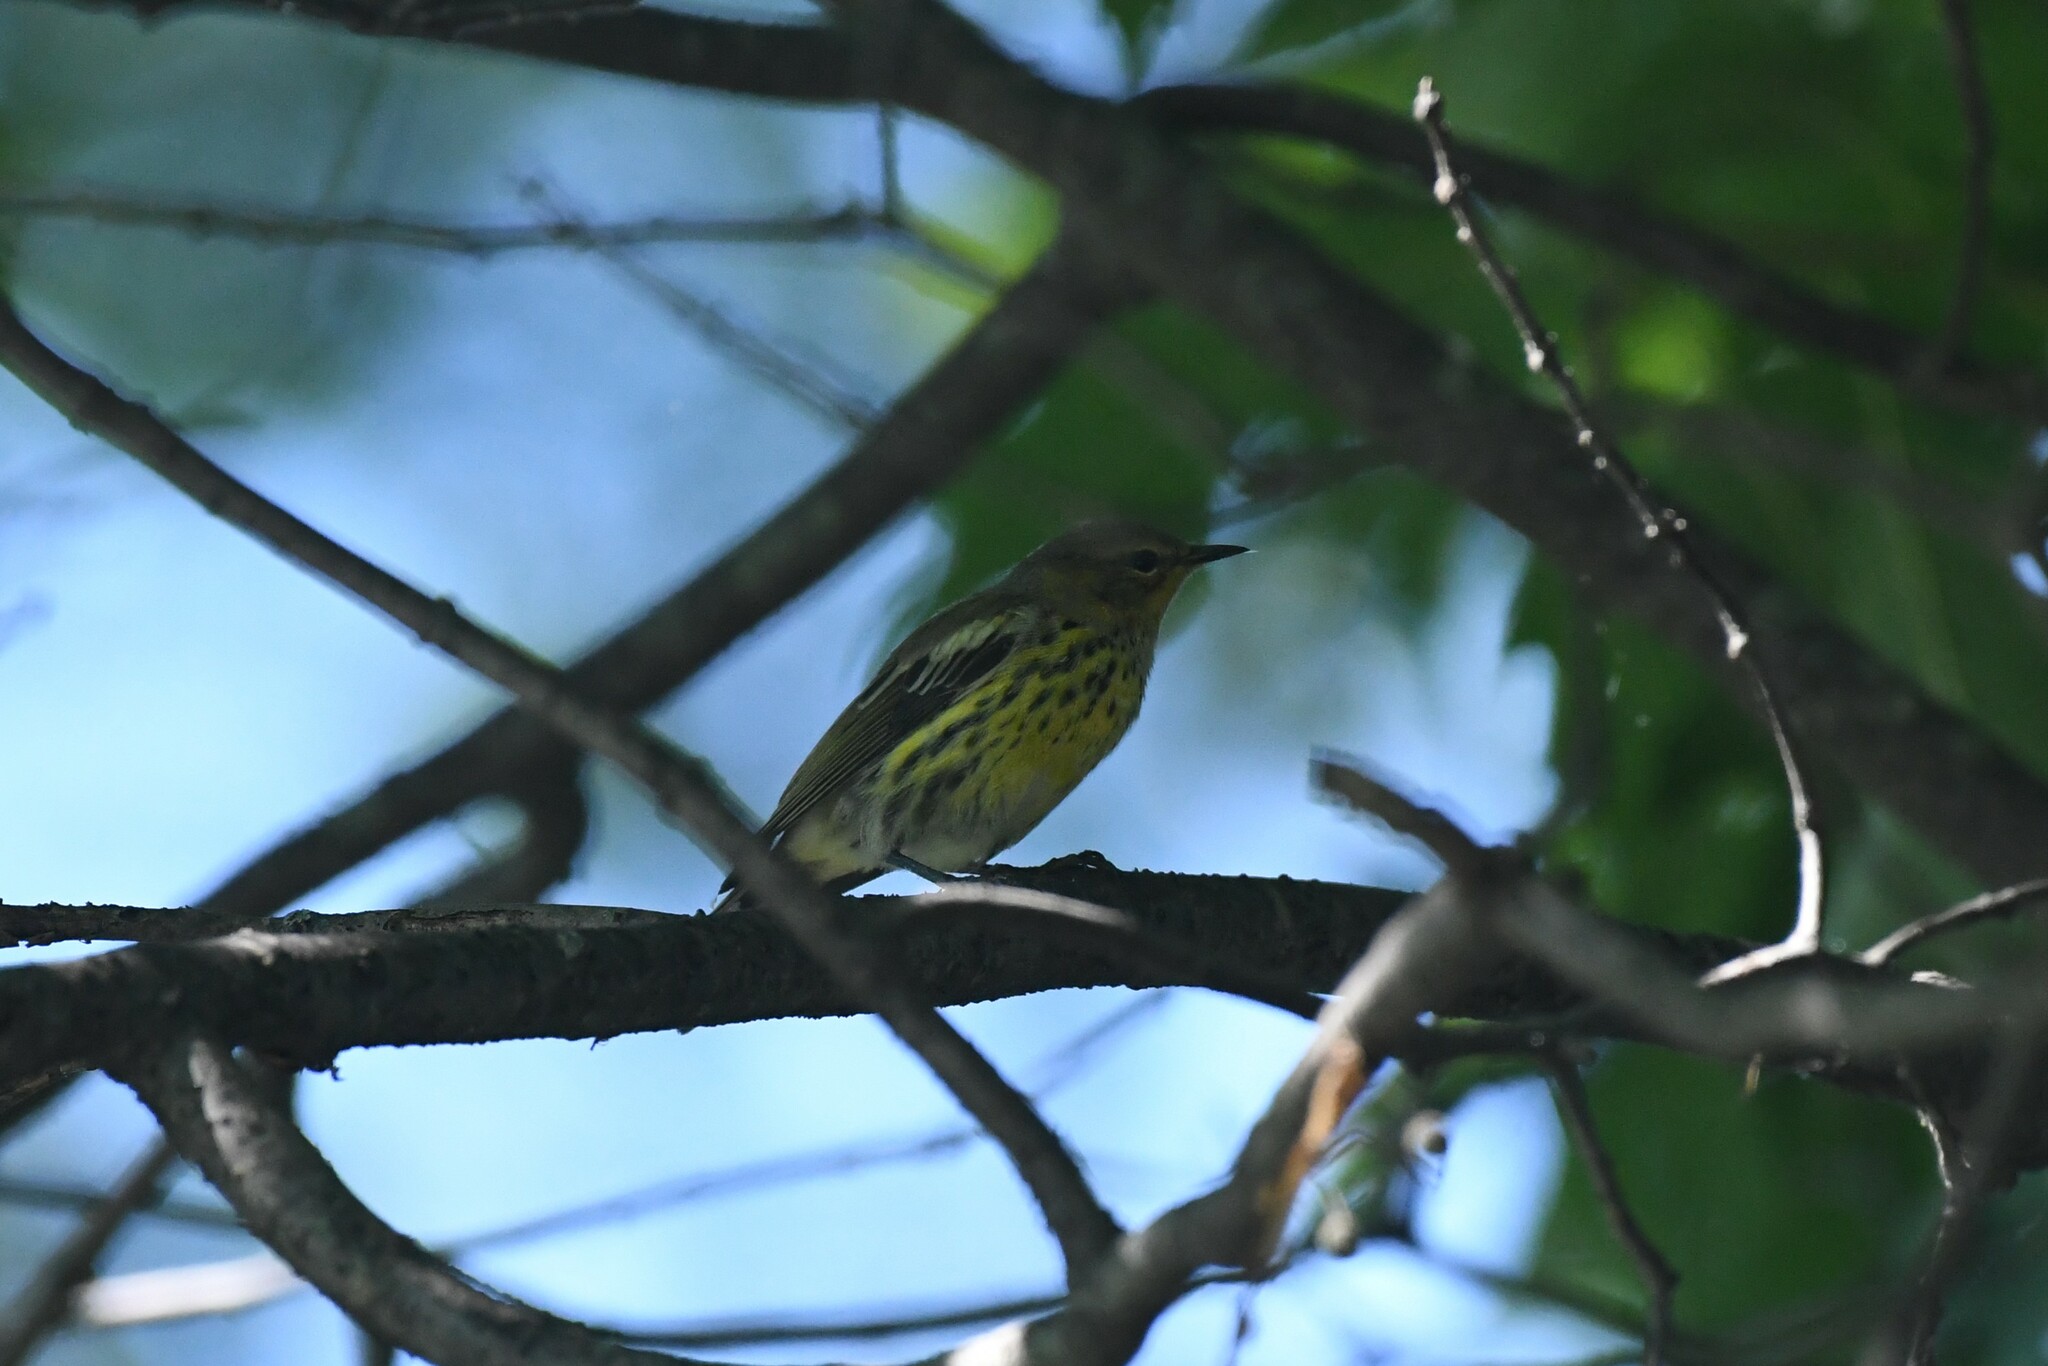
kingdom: Animalia
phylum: Chordata
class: Aves
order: Passeriformes
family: Parulidae
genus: Setophaga
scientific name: Setophaga tigrina
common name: Cape may warbler
